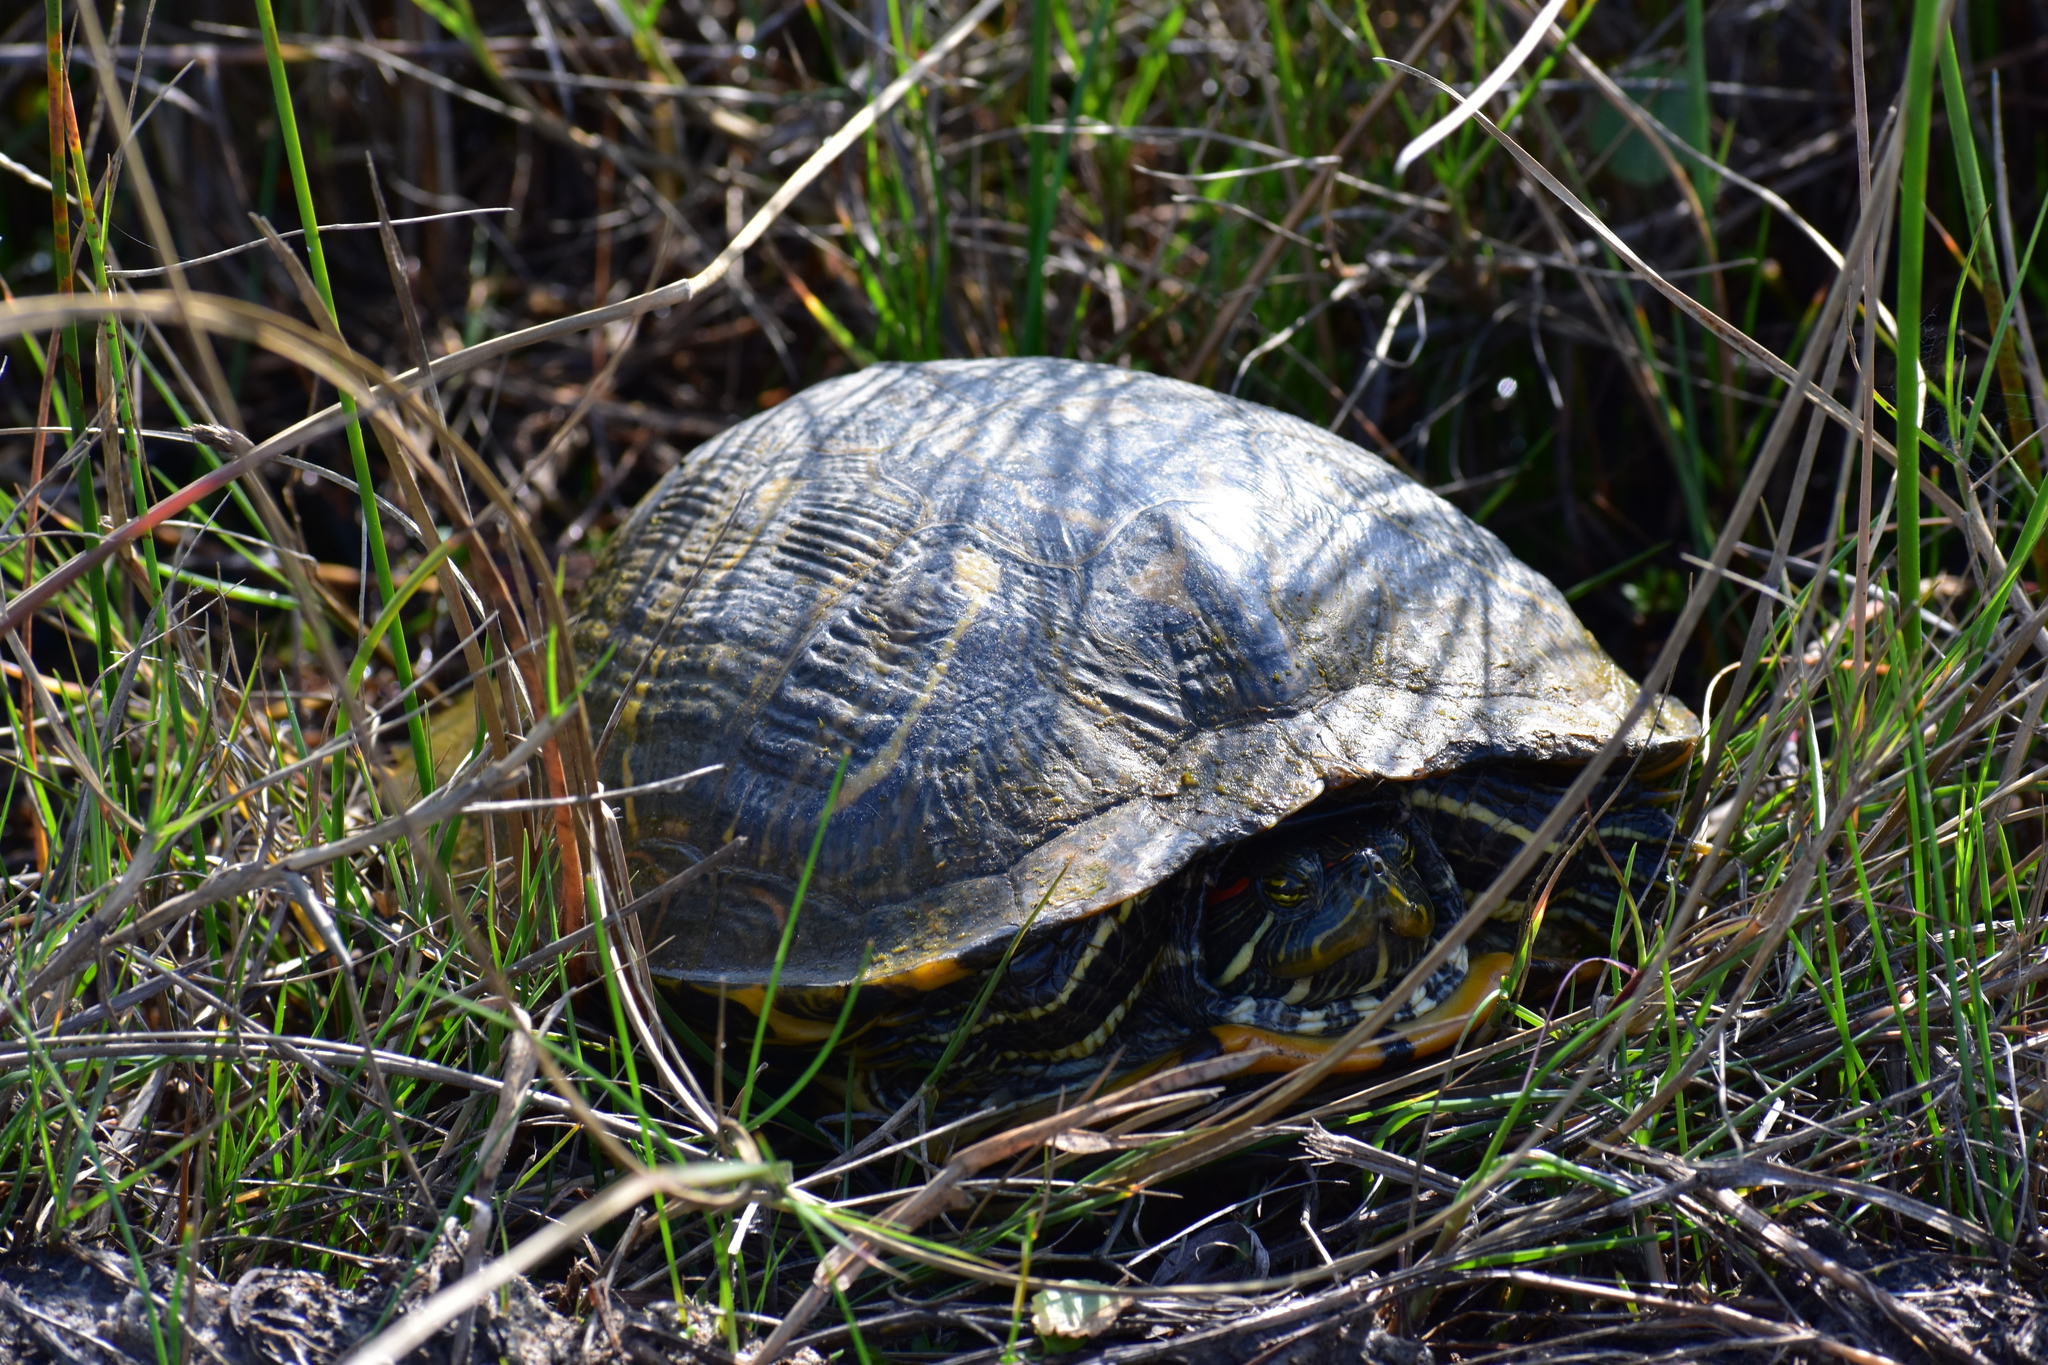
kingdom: Animalia
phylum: Chordata
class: Testudines
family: Emydidae
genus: Trachemys
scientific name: Trachemys scripta
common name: Slider
